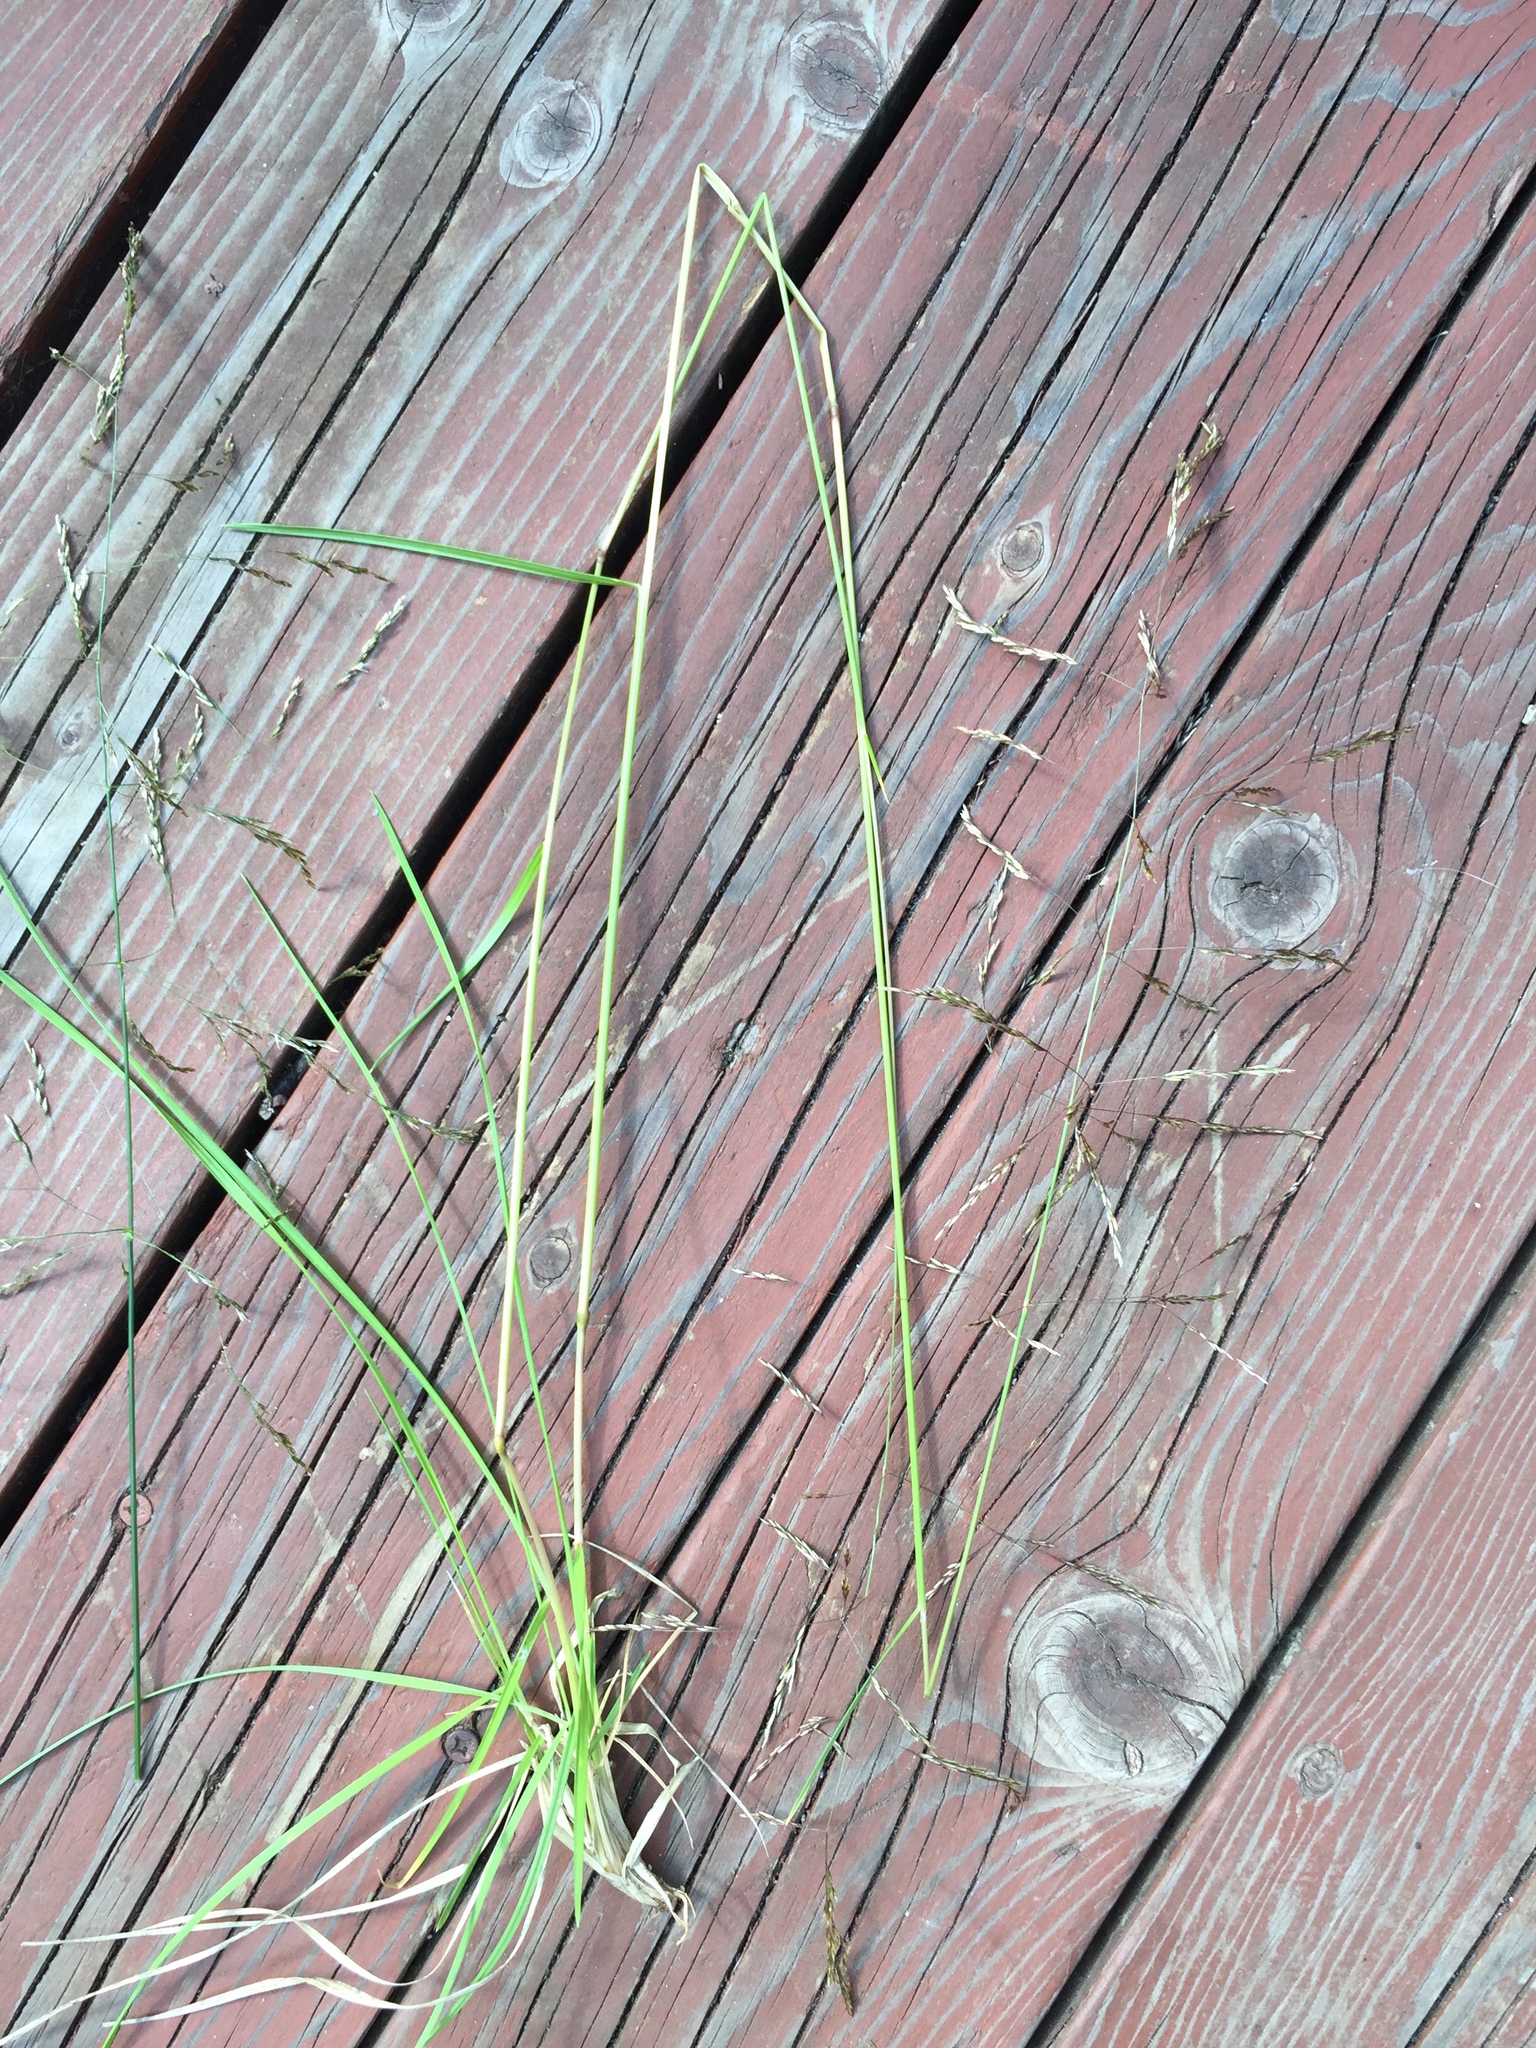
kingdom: Plantae
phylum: Tracheophyta
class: Liliopsida
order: Poales
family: Poaceae
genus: Deschampsia
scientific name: Deschampsia cespitosa
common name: Tufted hair-grass
